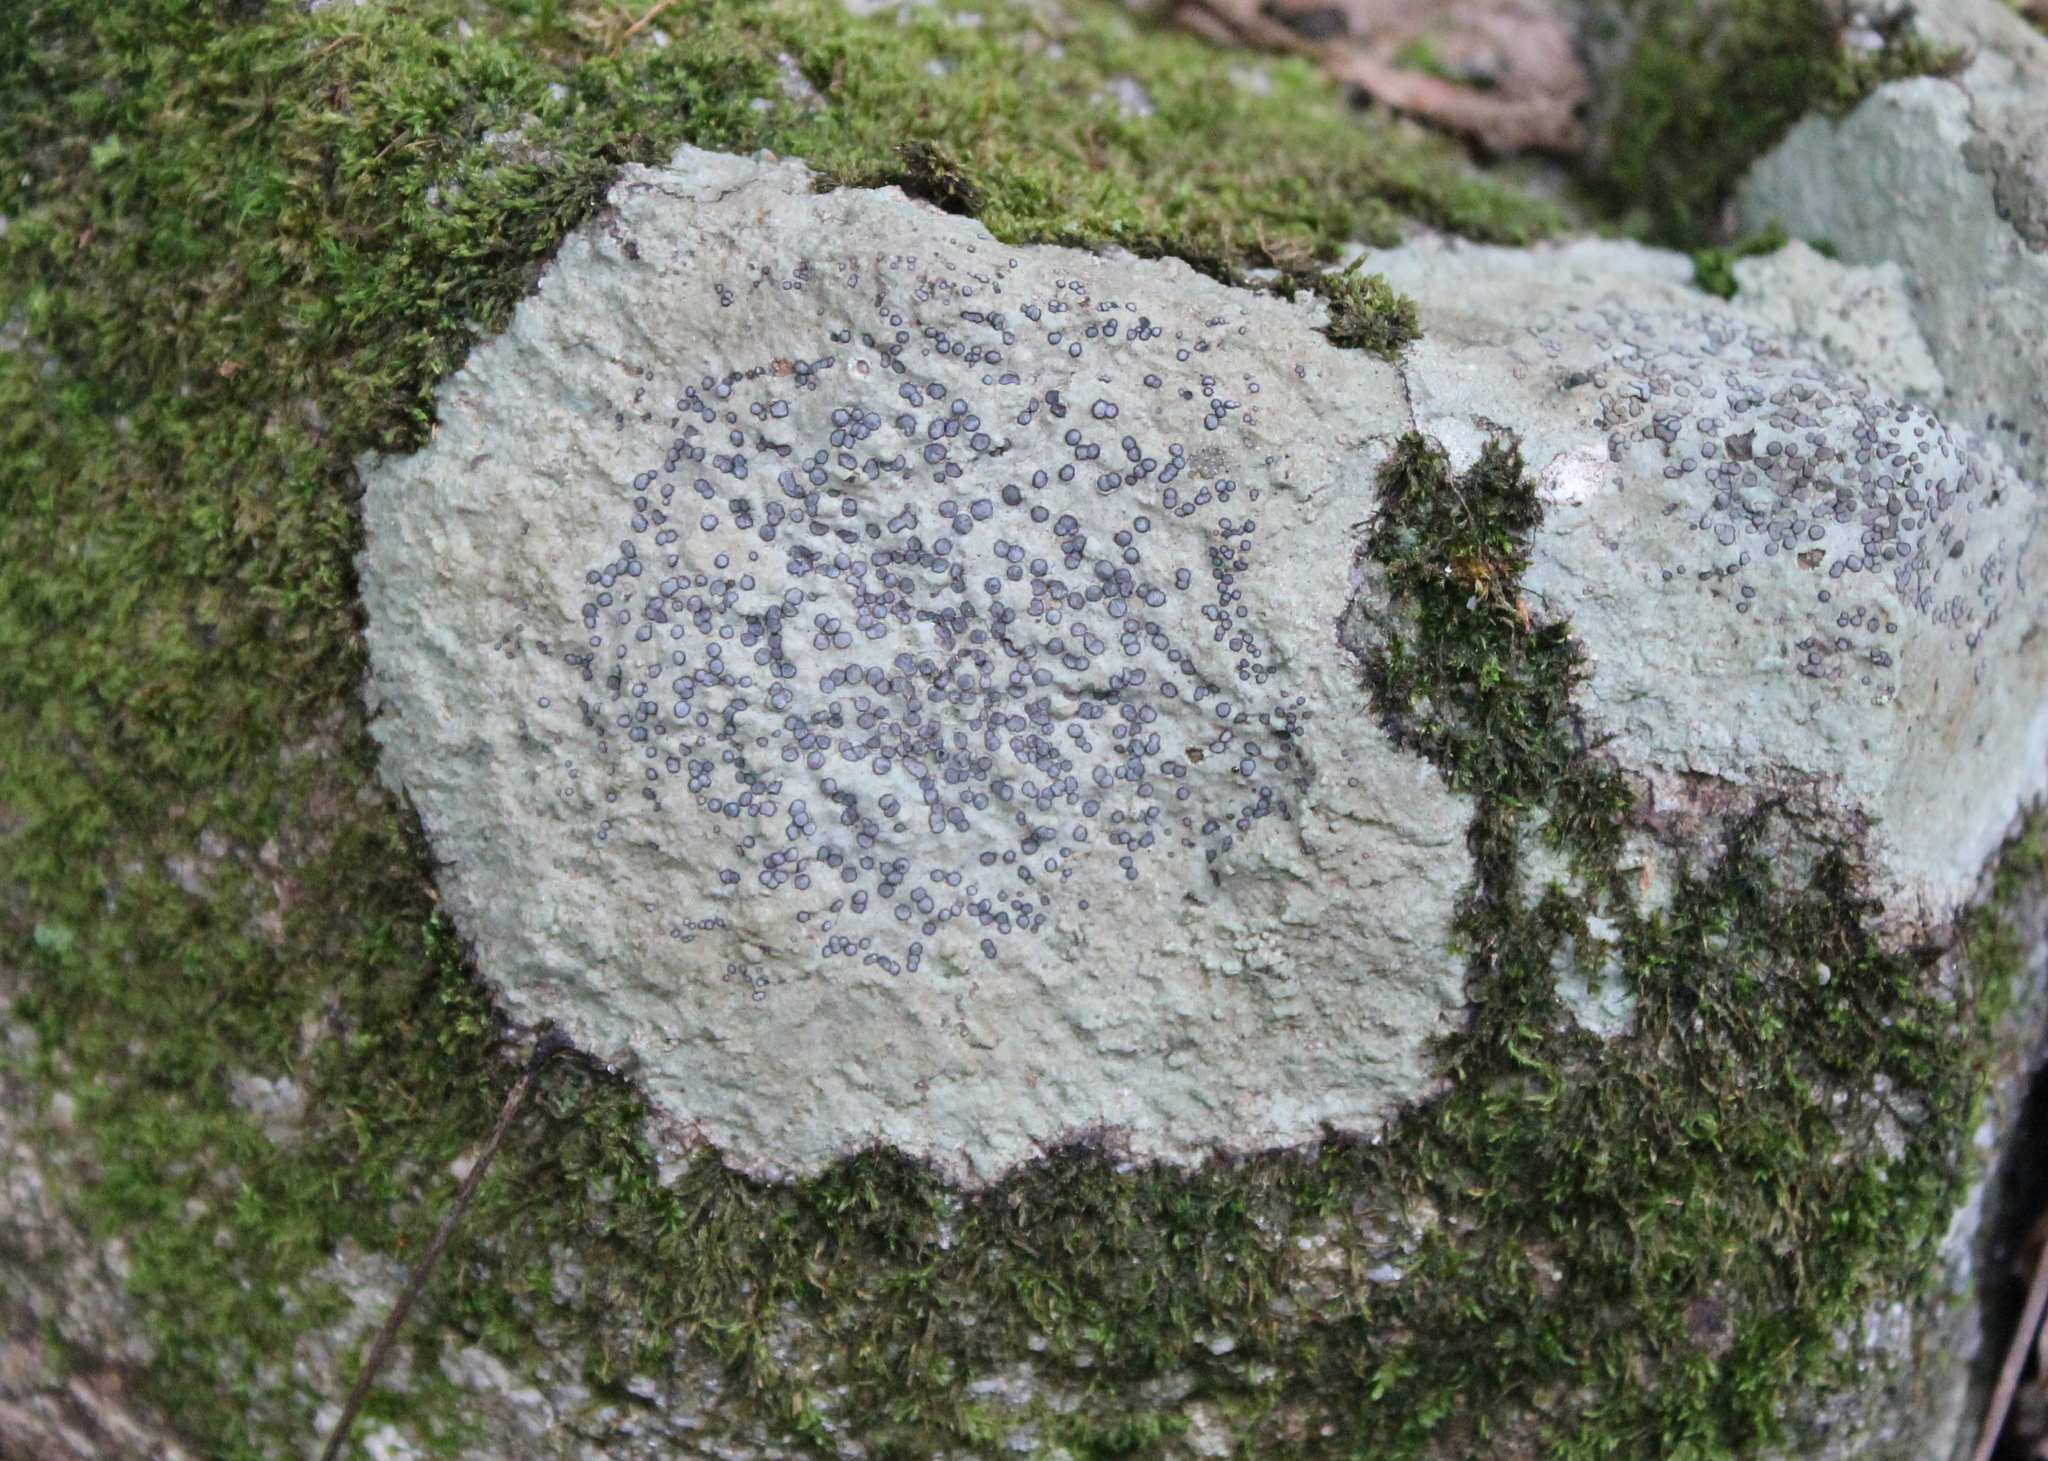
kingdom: Fungi
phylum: Ascomycota
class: Lecanoromycetes
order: Lecideales
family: Lecideaceae
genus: Porpidia
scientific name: Porpidia albocaerulescens
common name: Smokey-eyed boulder lichen
